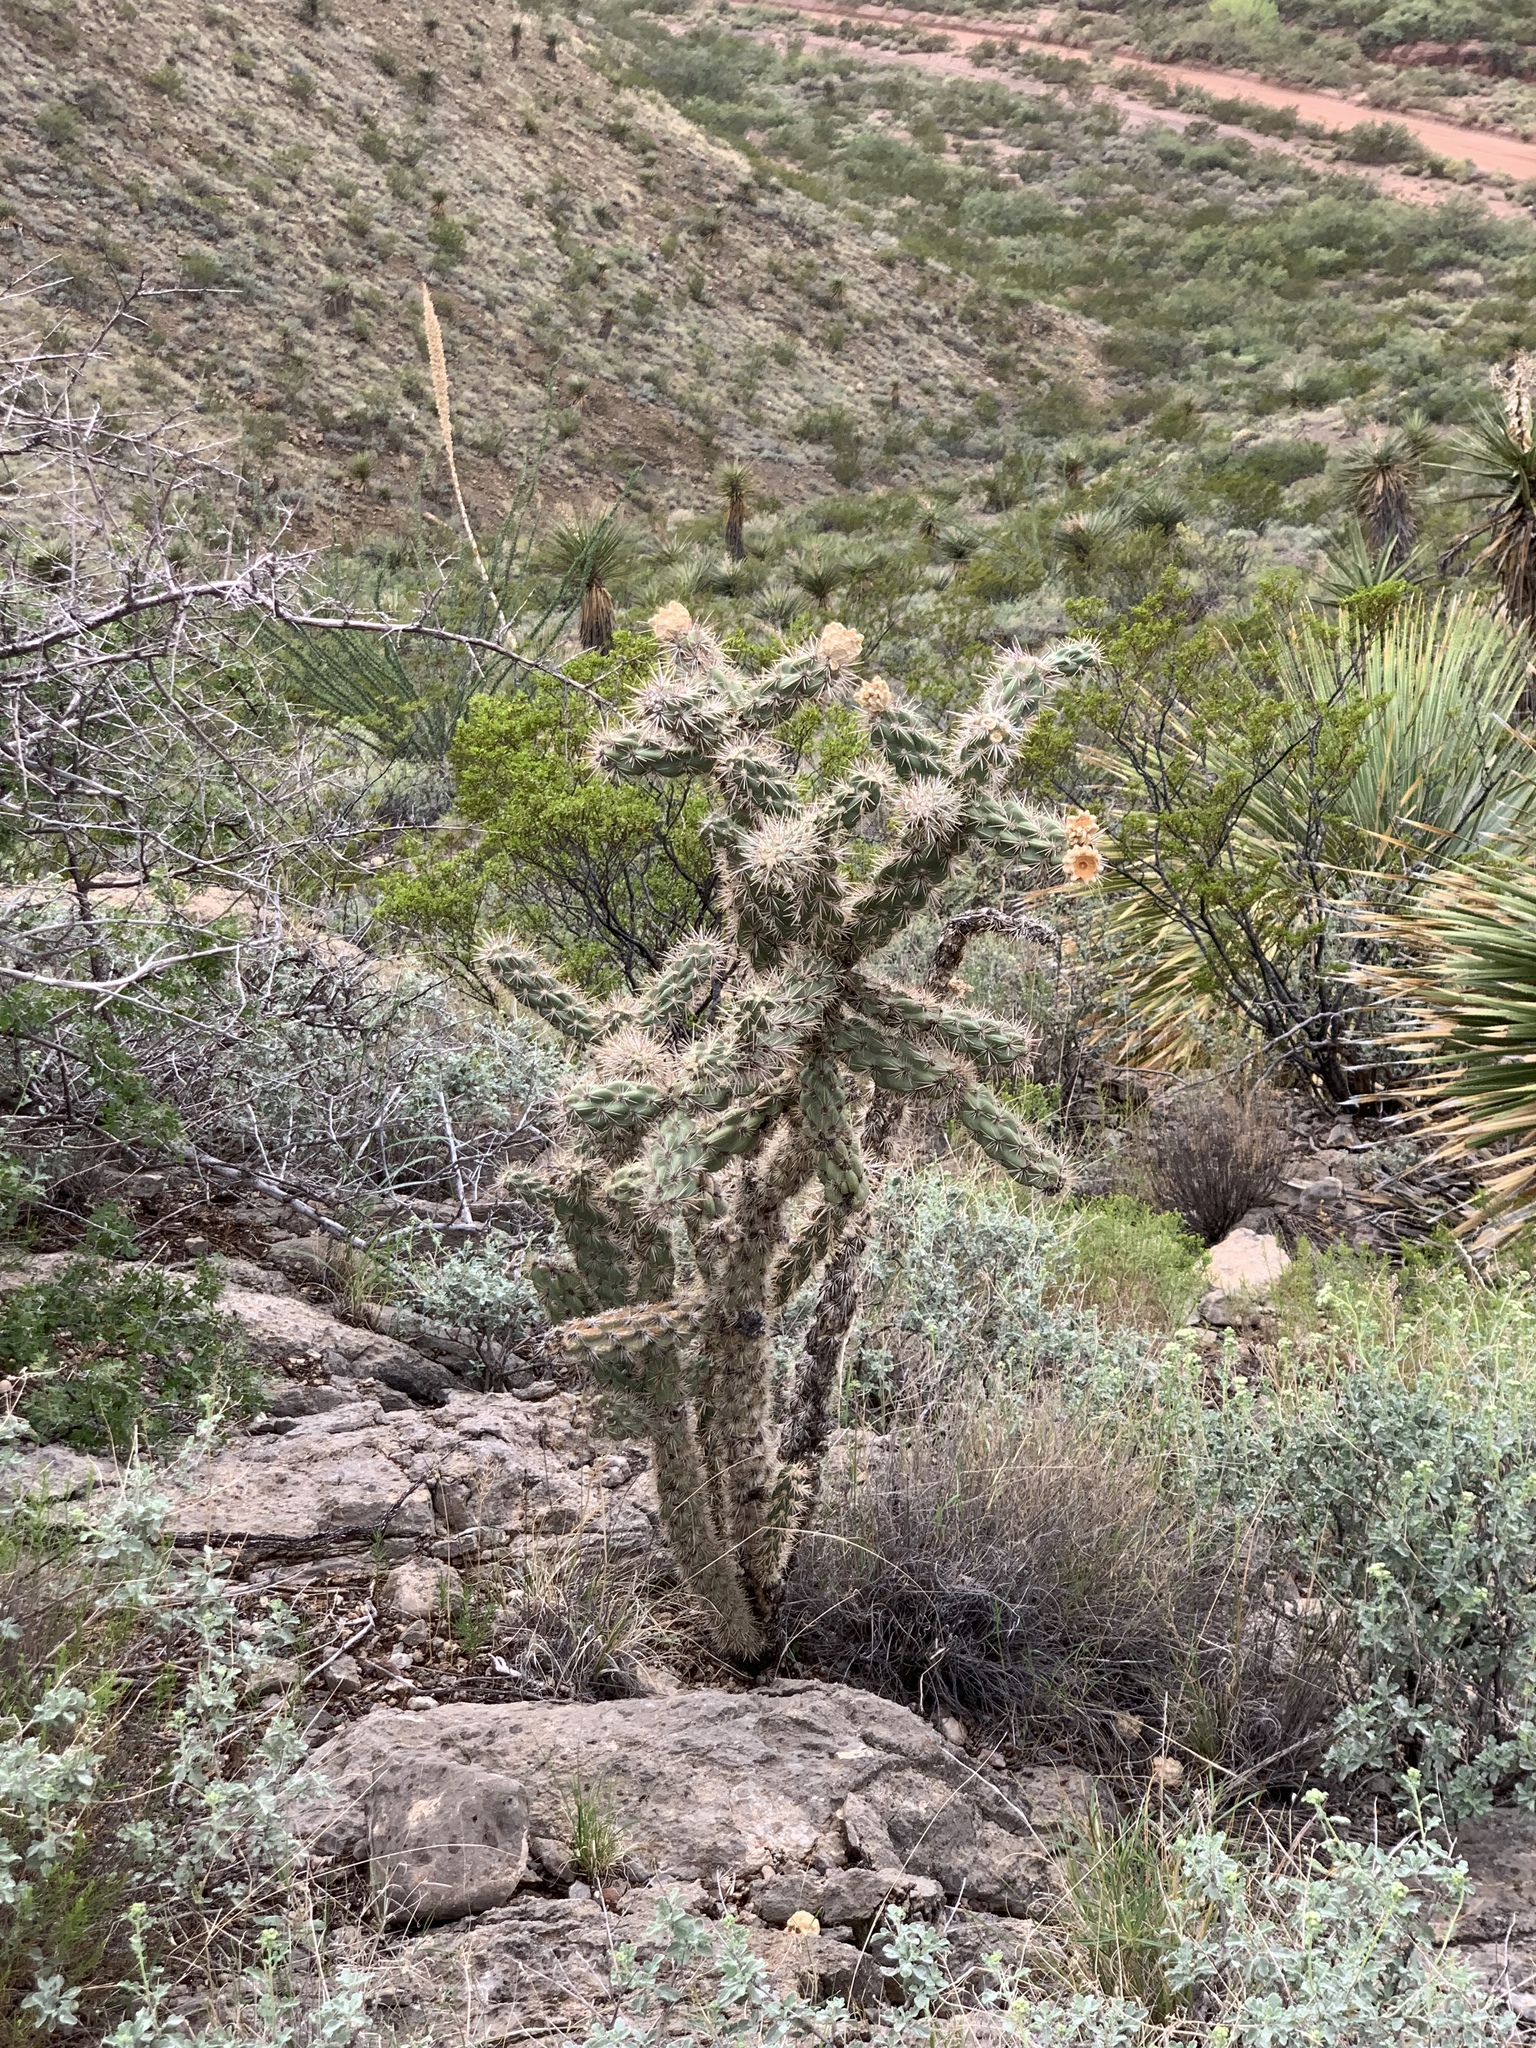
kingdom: Plantae
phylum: Tracheophyta
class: Magnoliopsida
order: Caryophyllales
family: Cactaceae
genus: Cylindropuntia
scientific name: Cylindropuntia imbricata
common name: Candelabrum cactus
